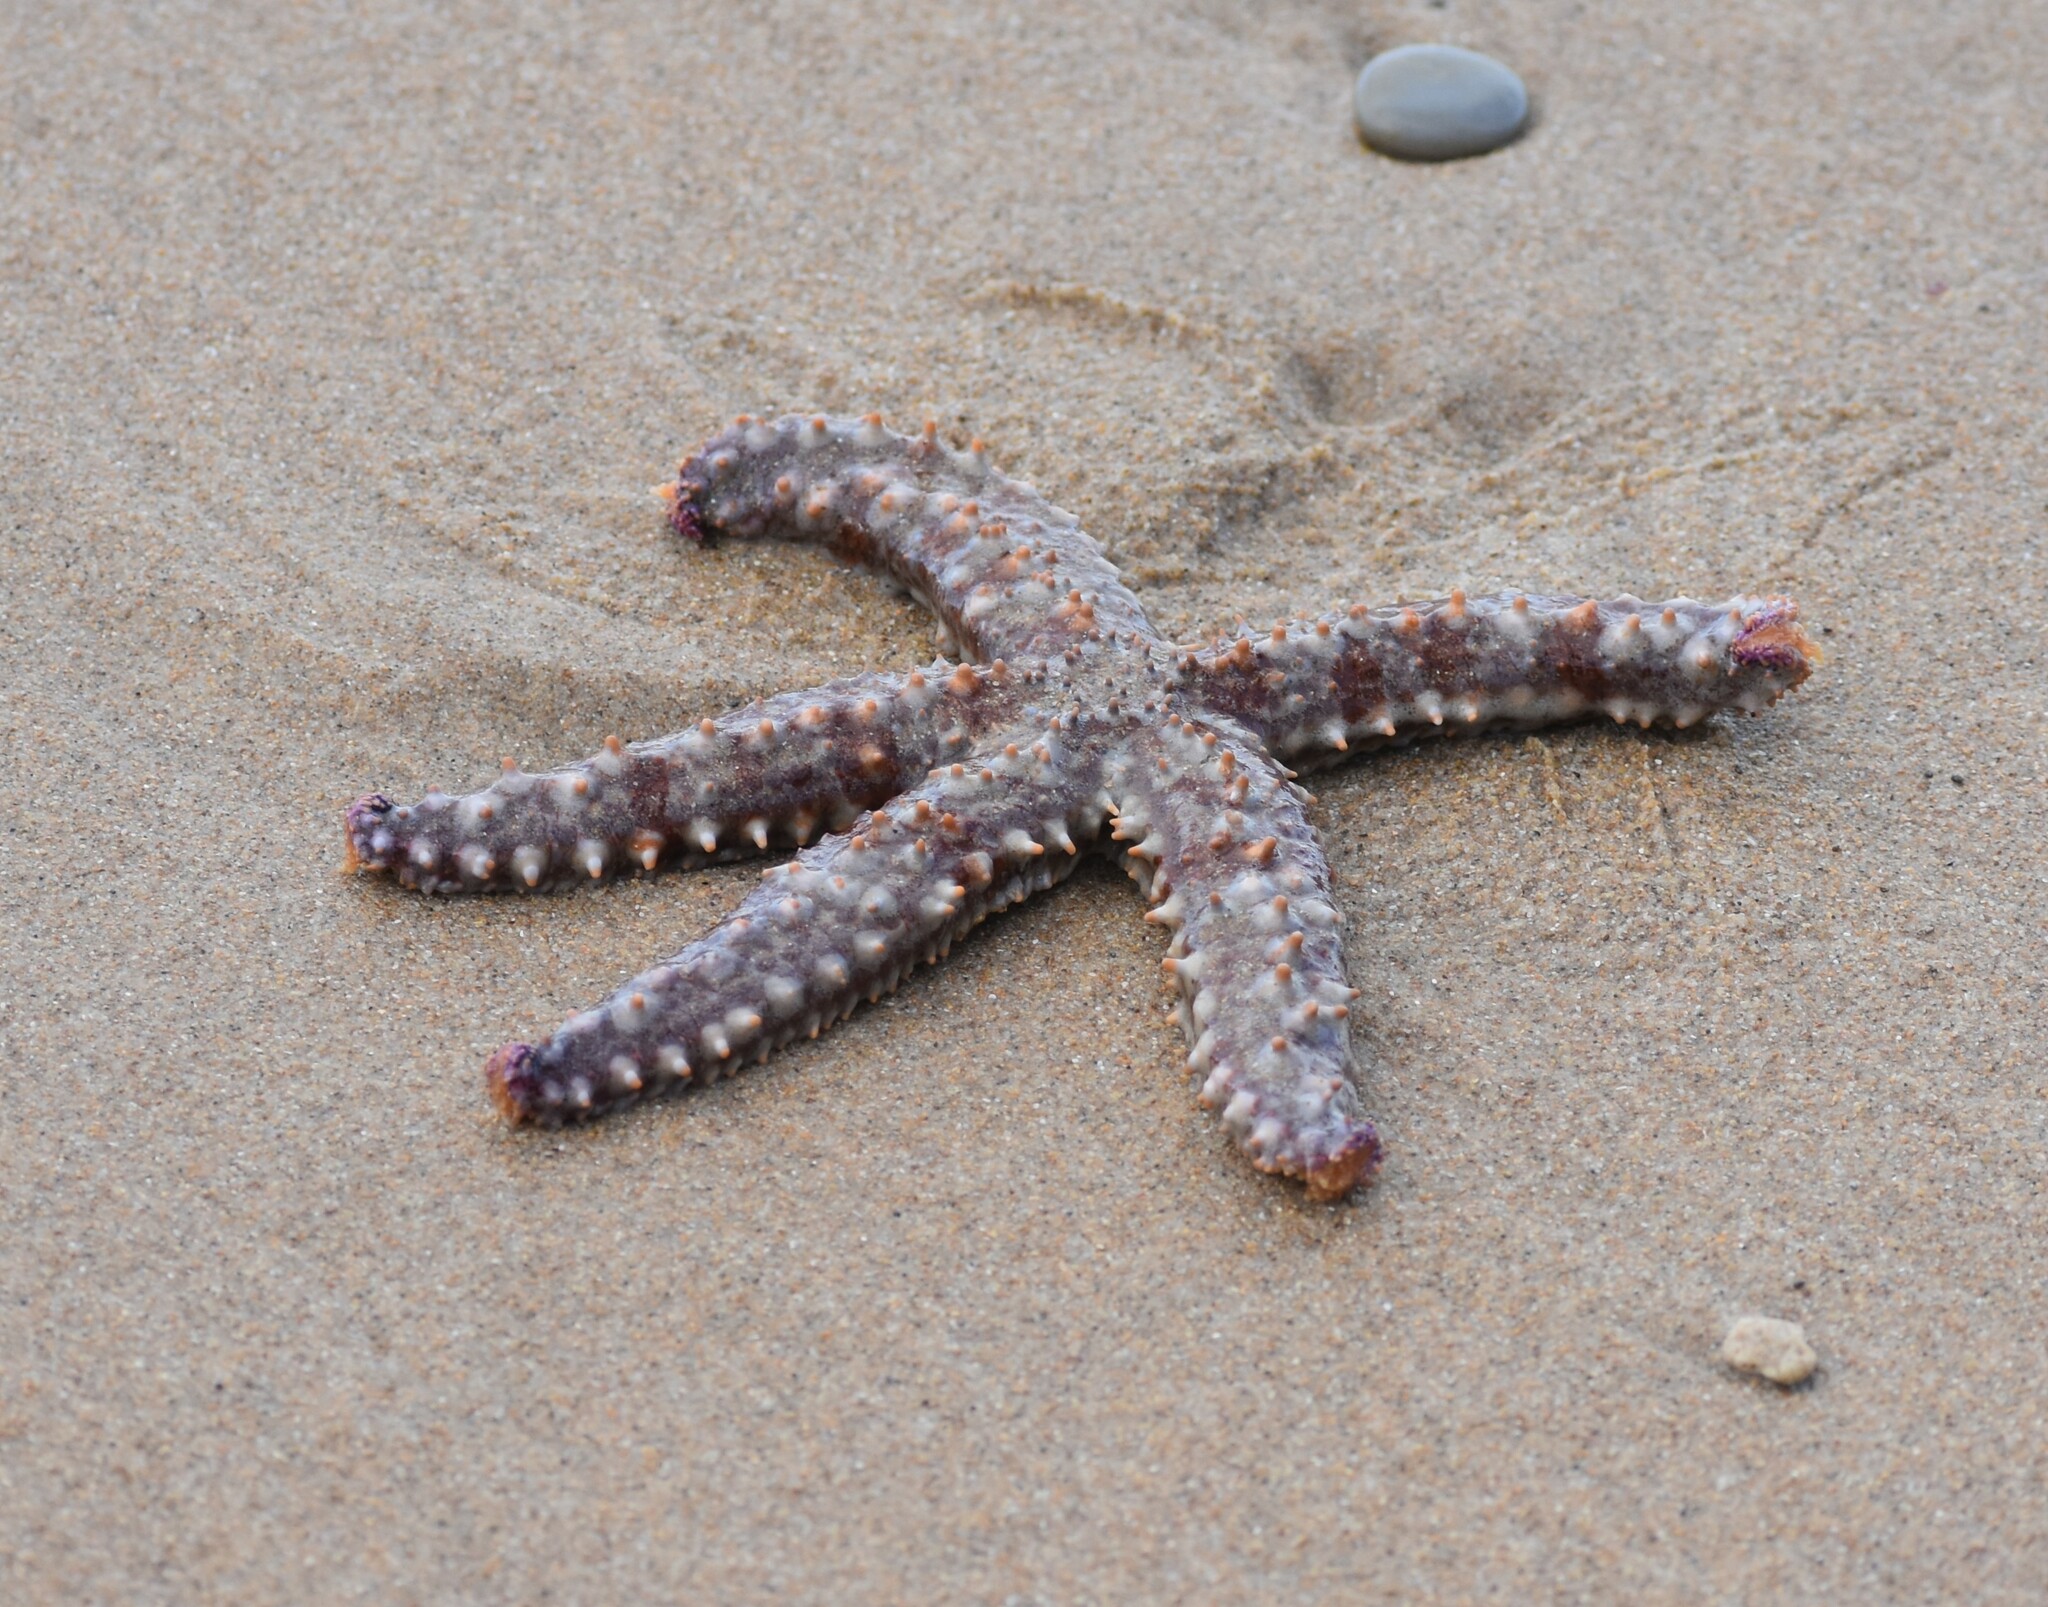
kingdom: Animalia
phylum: Echinodermata
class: Asteroidea
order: Forcipulatida
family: Asteriidae
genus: Marthasterias
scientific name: Marthasterias africana
